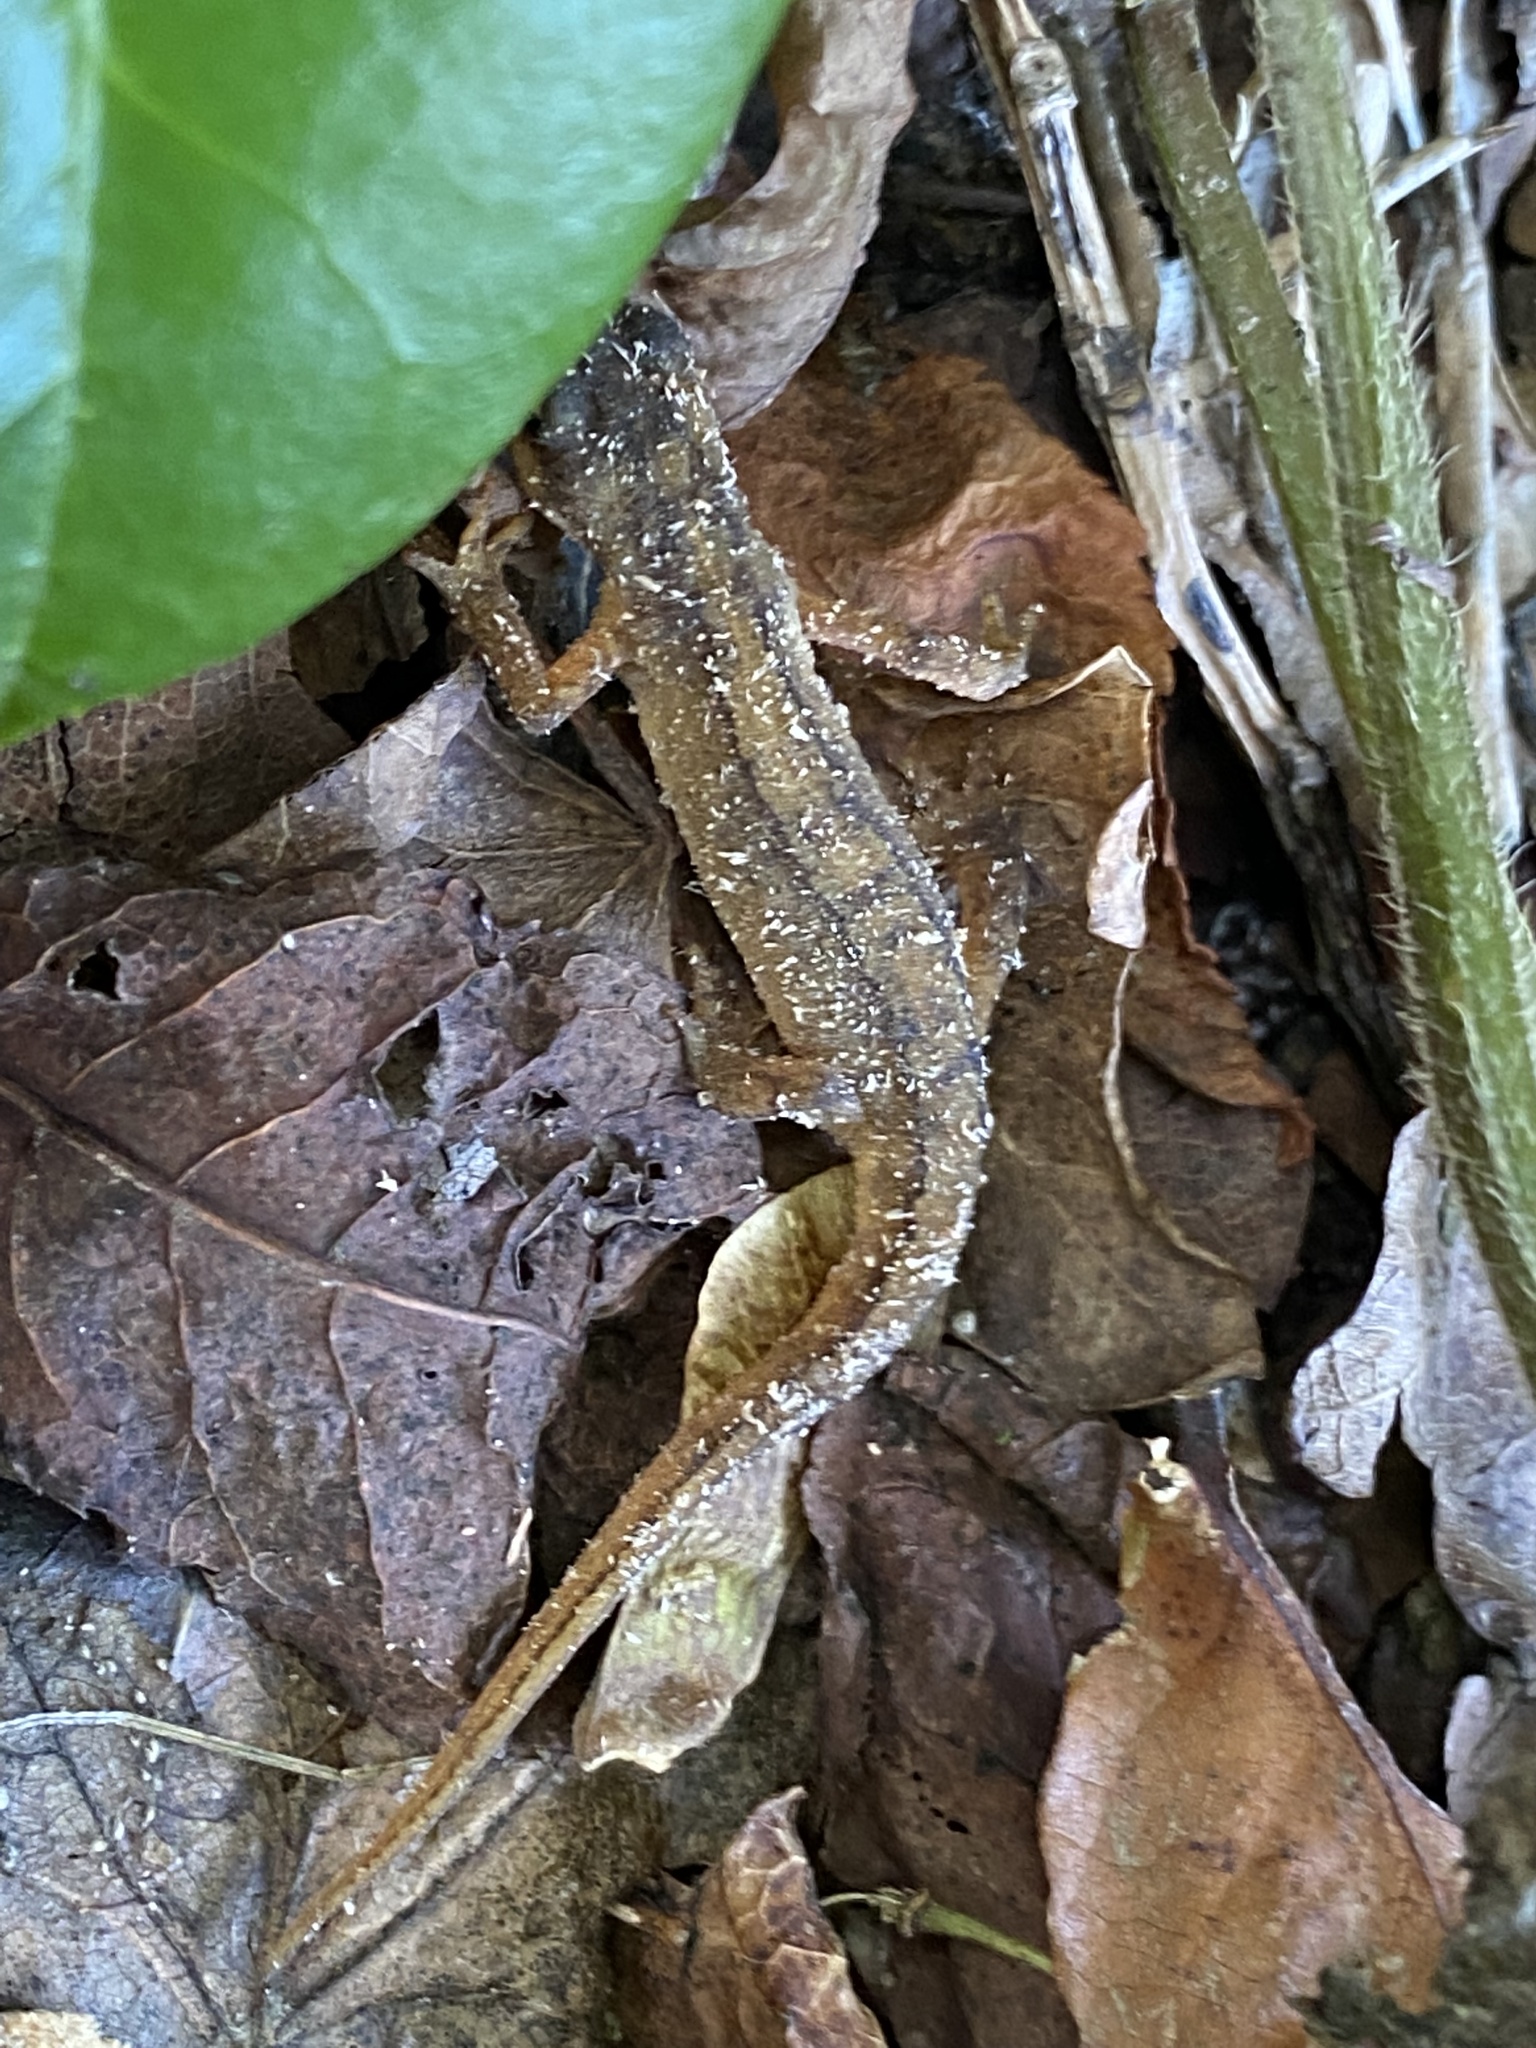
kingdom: Animalia
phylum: Chordata
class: Amphibia
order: Caudata
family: Salamandridae
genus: Lissotriton
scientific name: Lissotriton
